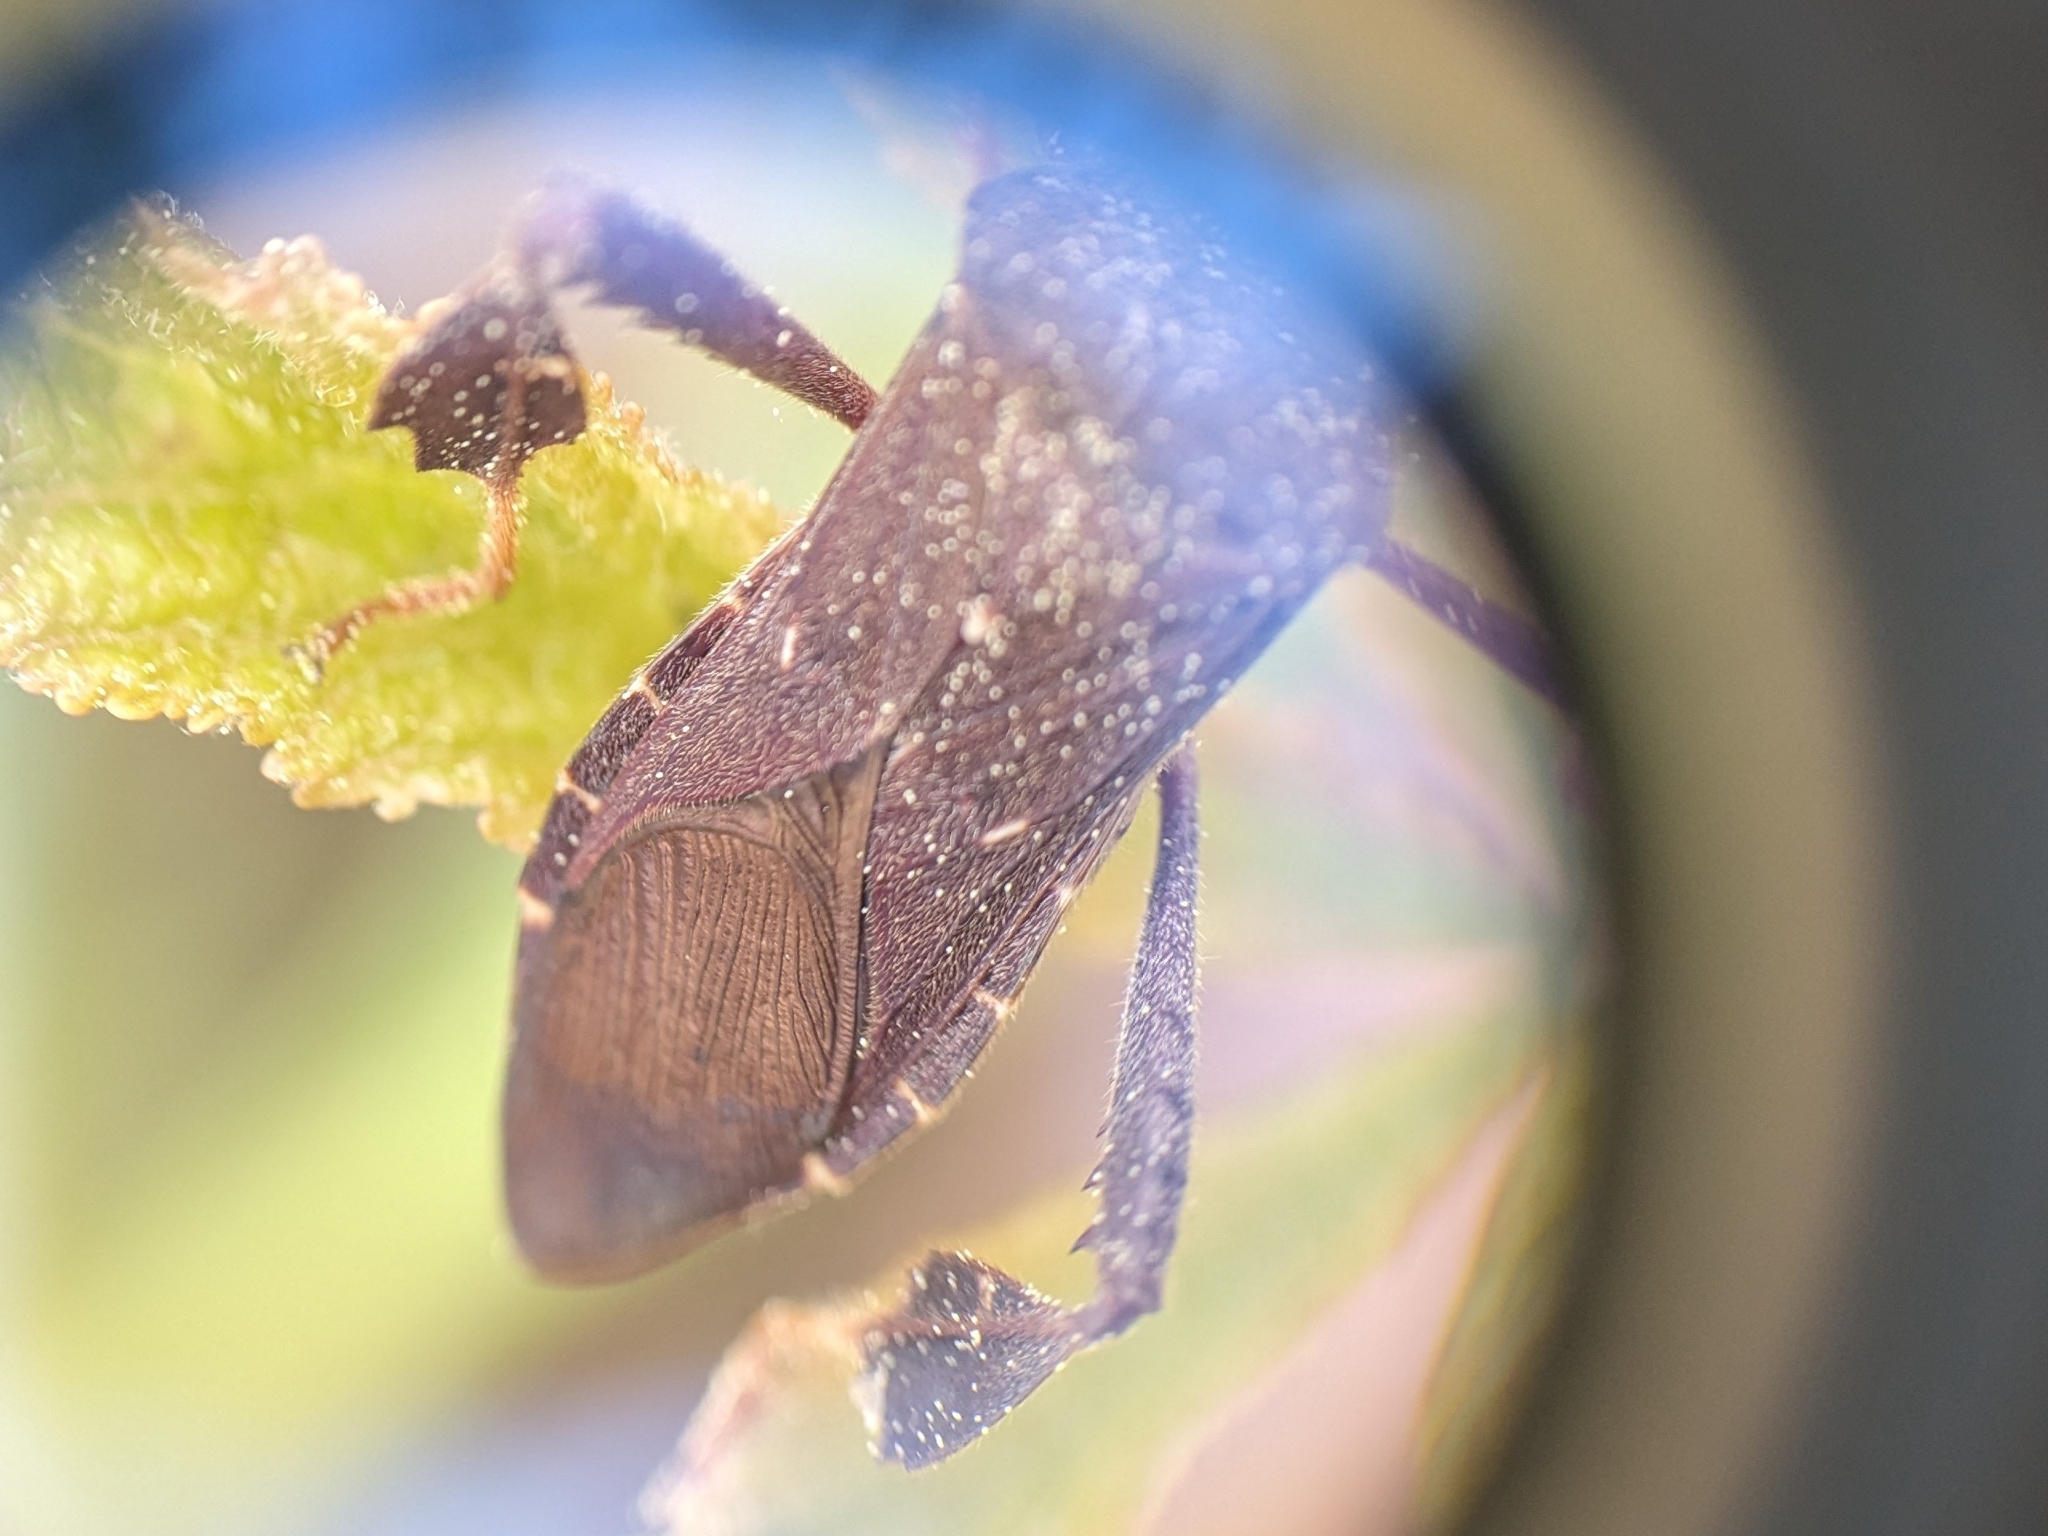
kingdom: Animalia
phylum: Arthropoda
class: Insecta
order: Hemiptera
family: Coreidae
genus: Leptoglossus
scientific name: Leptoglossus oppositus
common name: Northern leaf-footed bug
